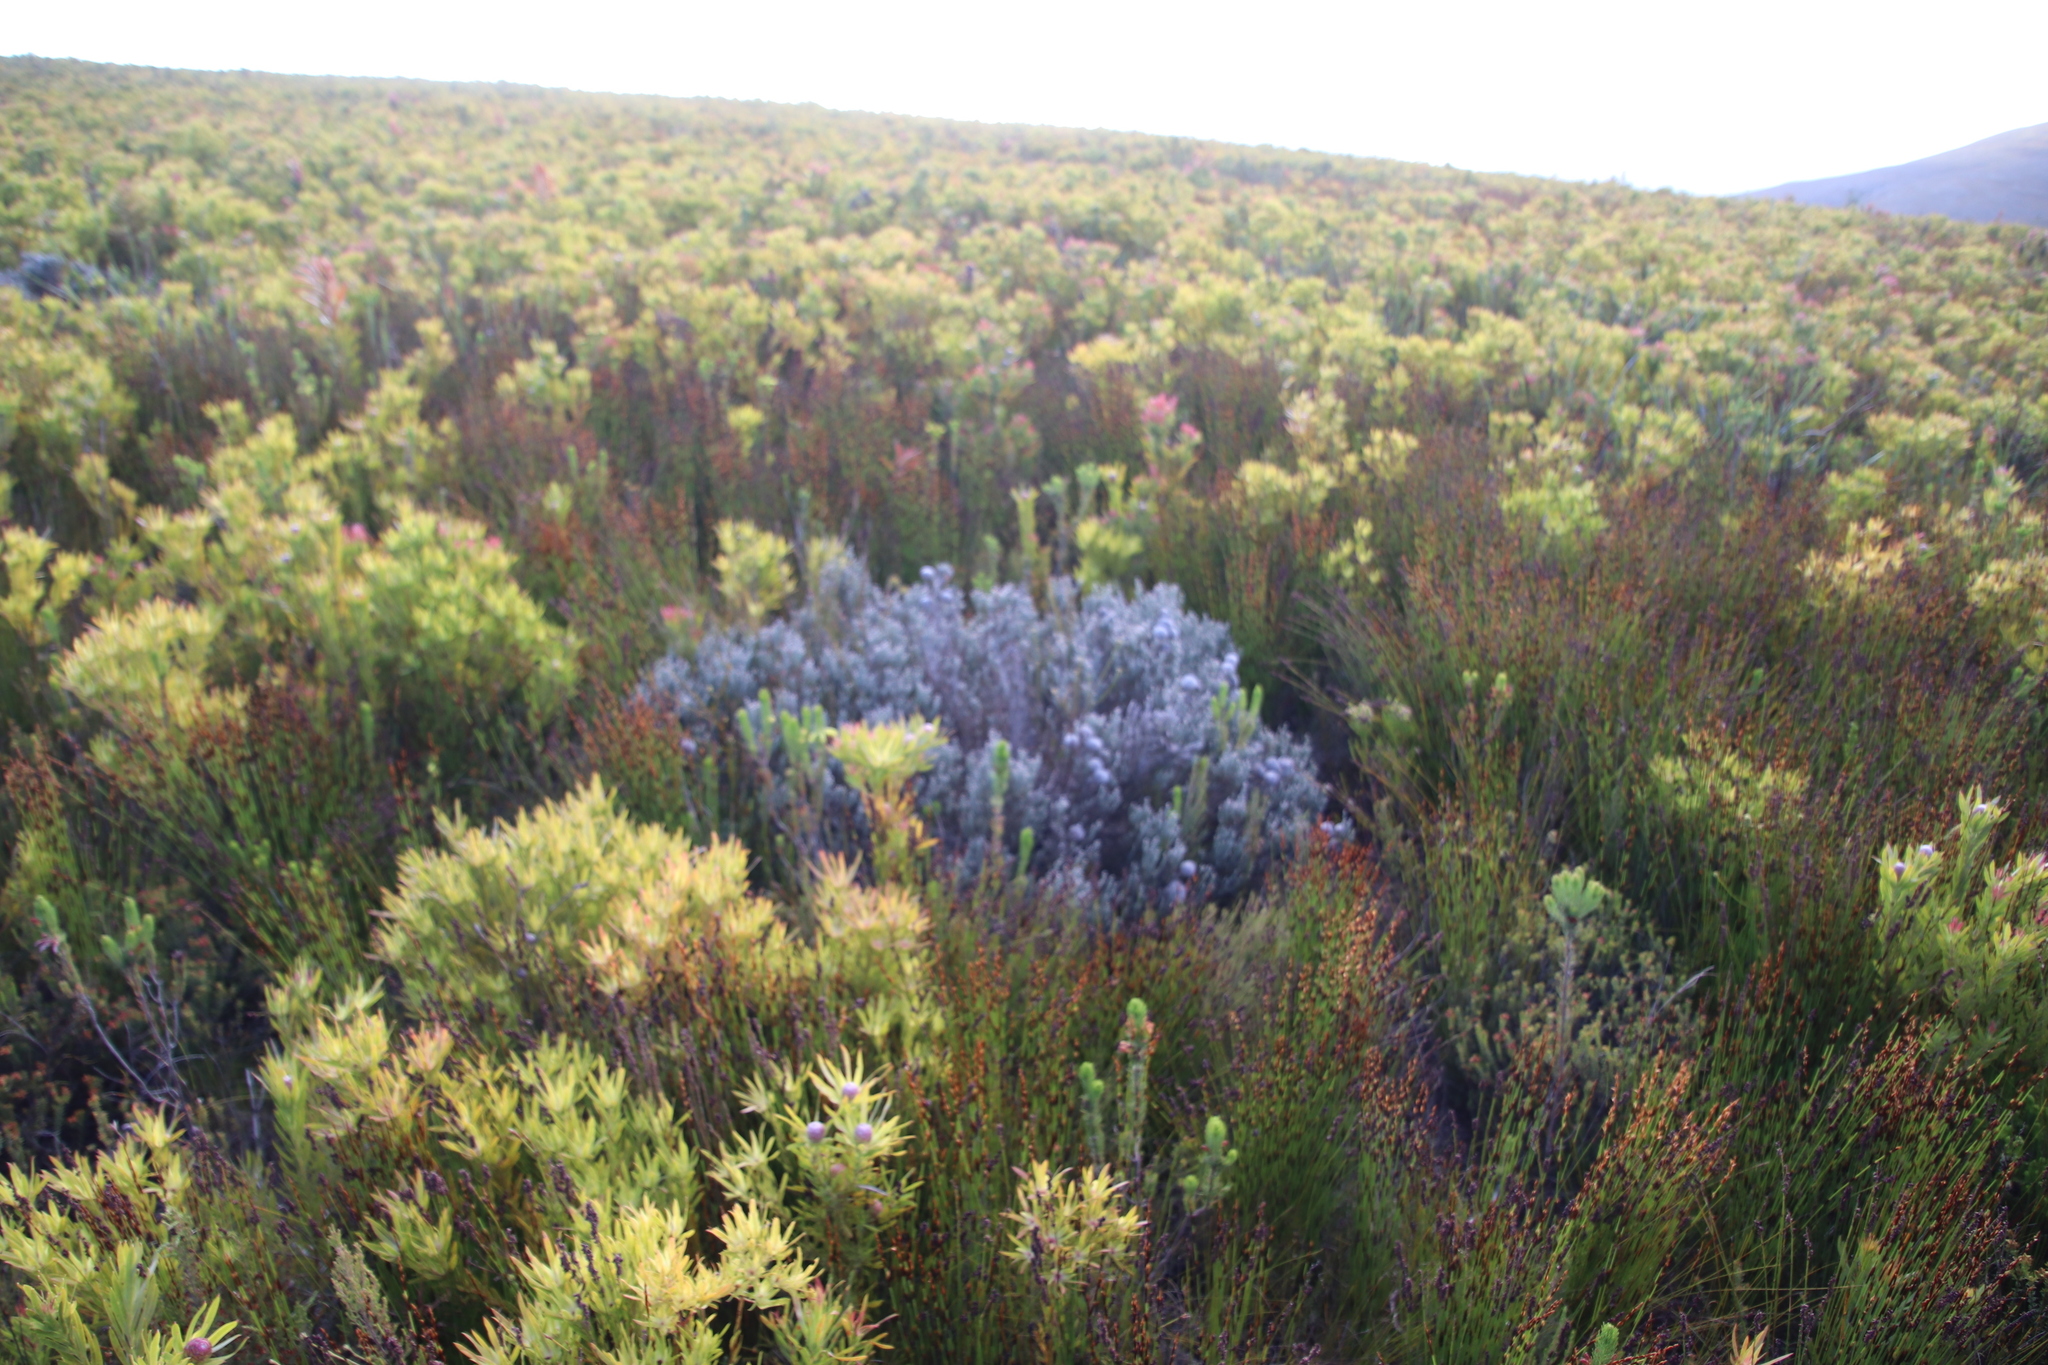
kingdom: Plantae
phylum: Tracheophyta
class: Magnoliopsida
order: Bruniales
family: Bruniaceae
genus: Brunia
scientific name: Brunia laevis
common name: Silver brunia
